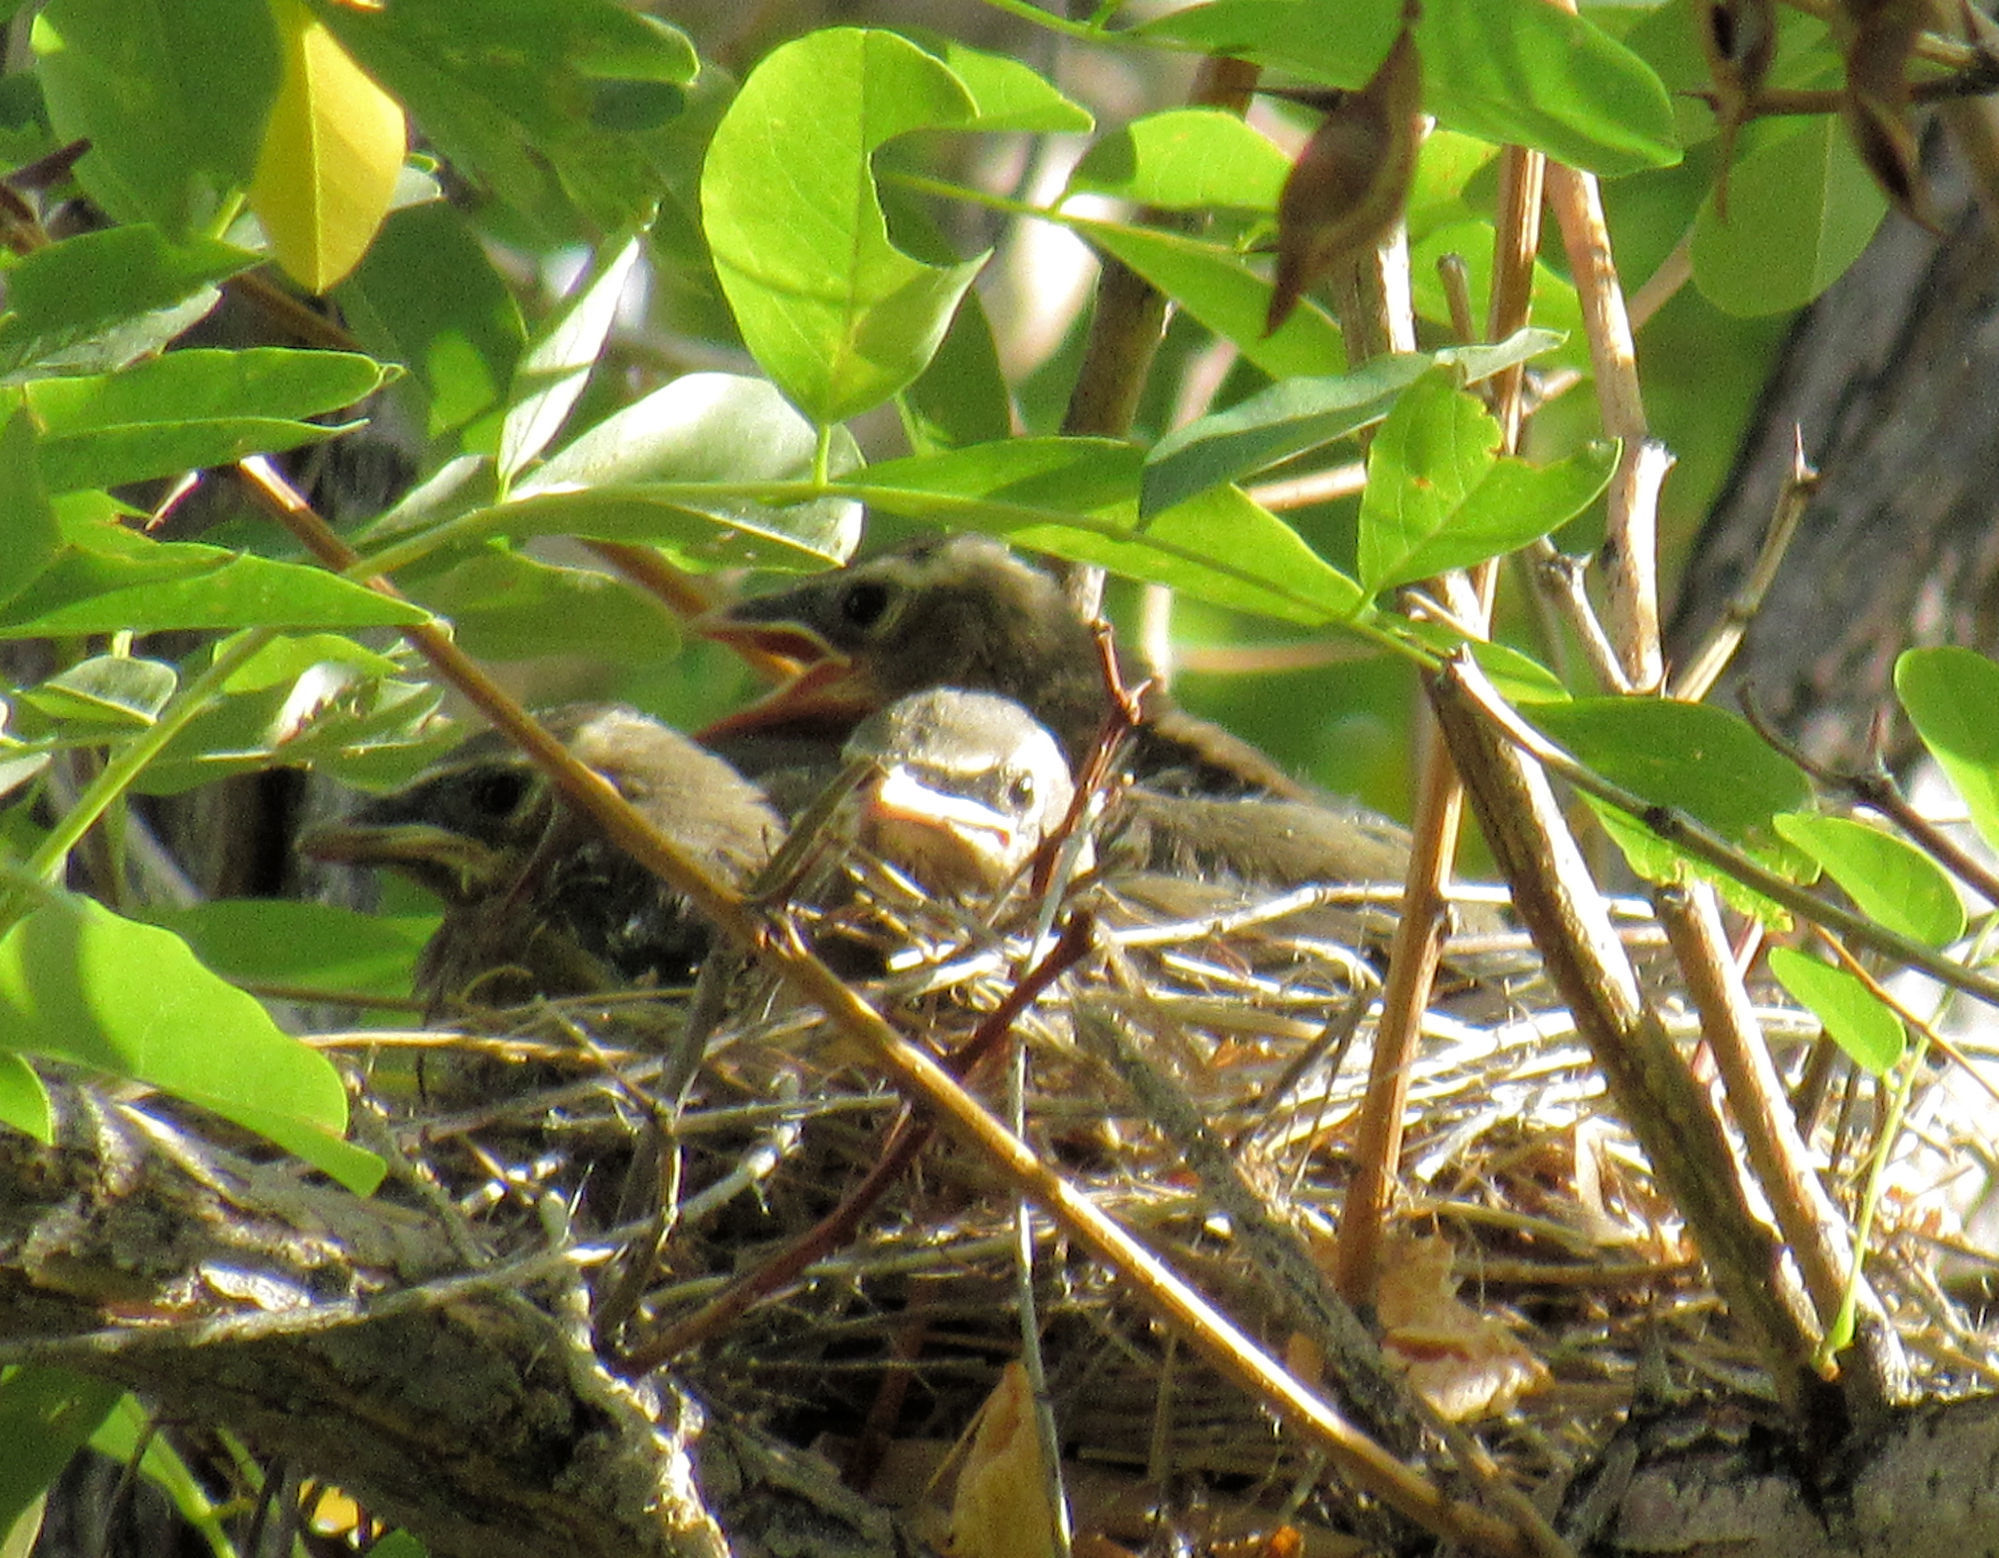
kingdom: Animalia
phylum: Chordata
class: Aves
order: Passeriformes
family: Bombycillidae
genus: Bombycilla
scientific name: Bombycilla cedrorum
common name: Cedar waxwing
